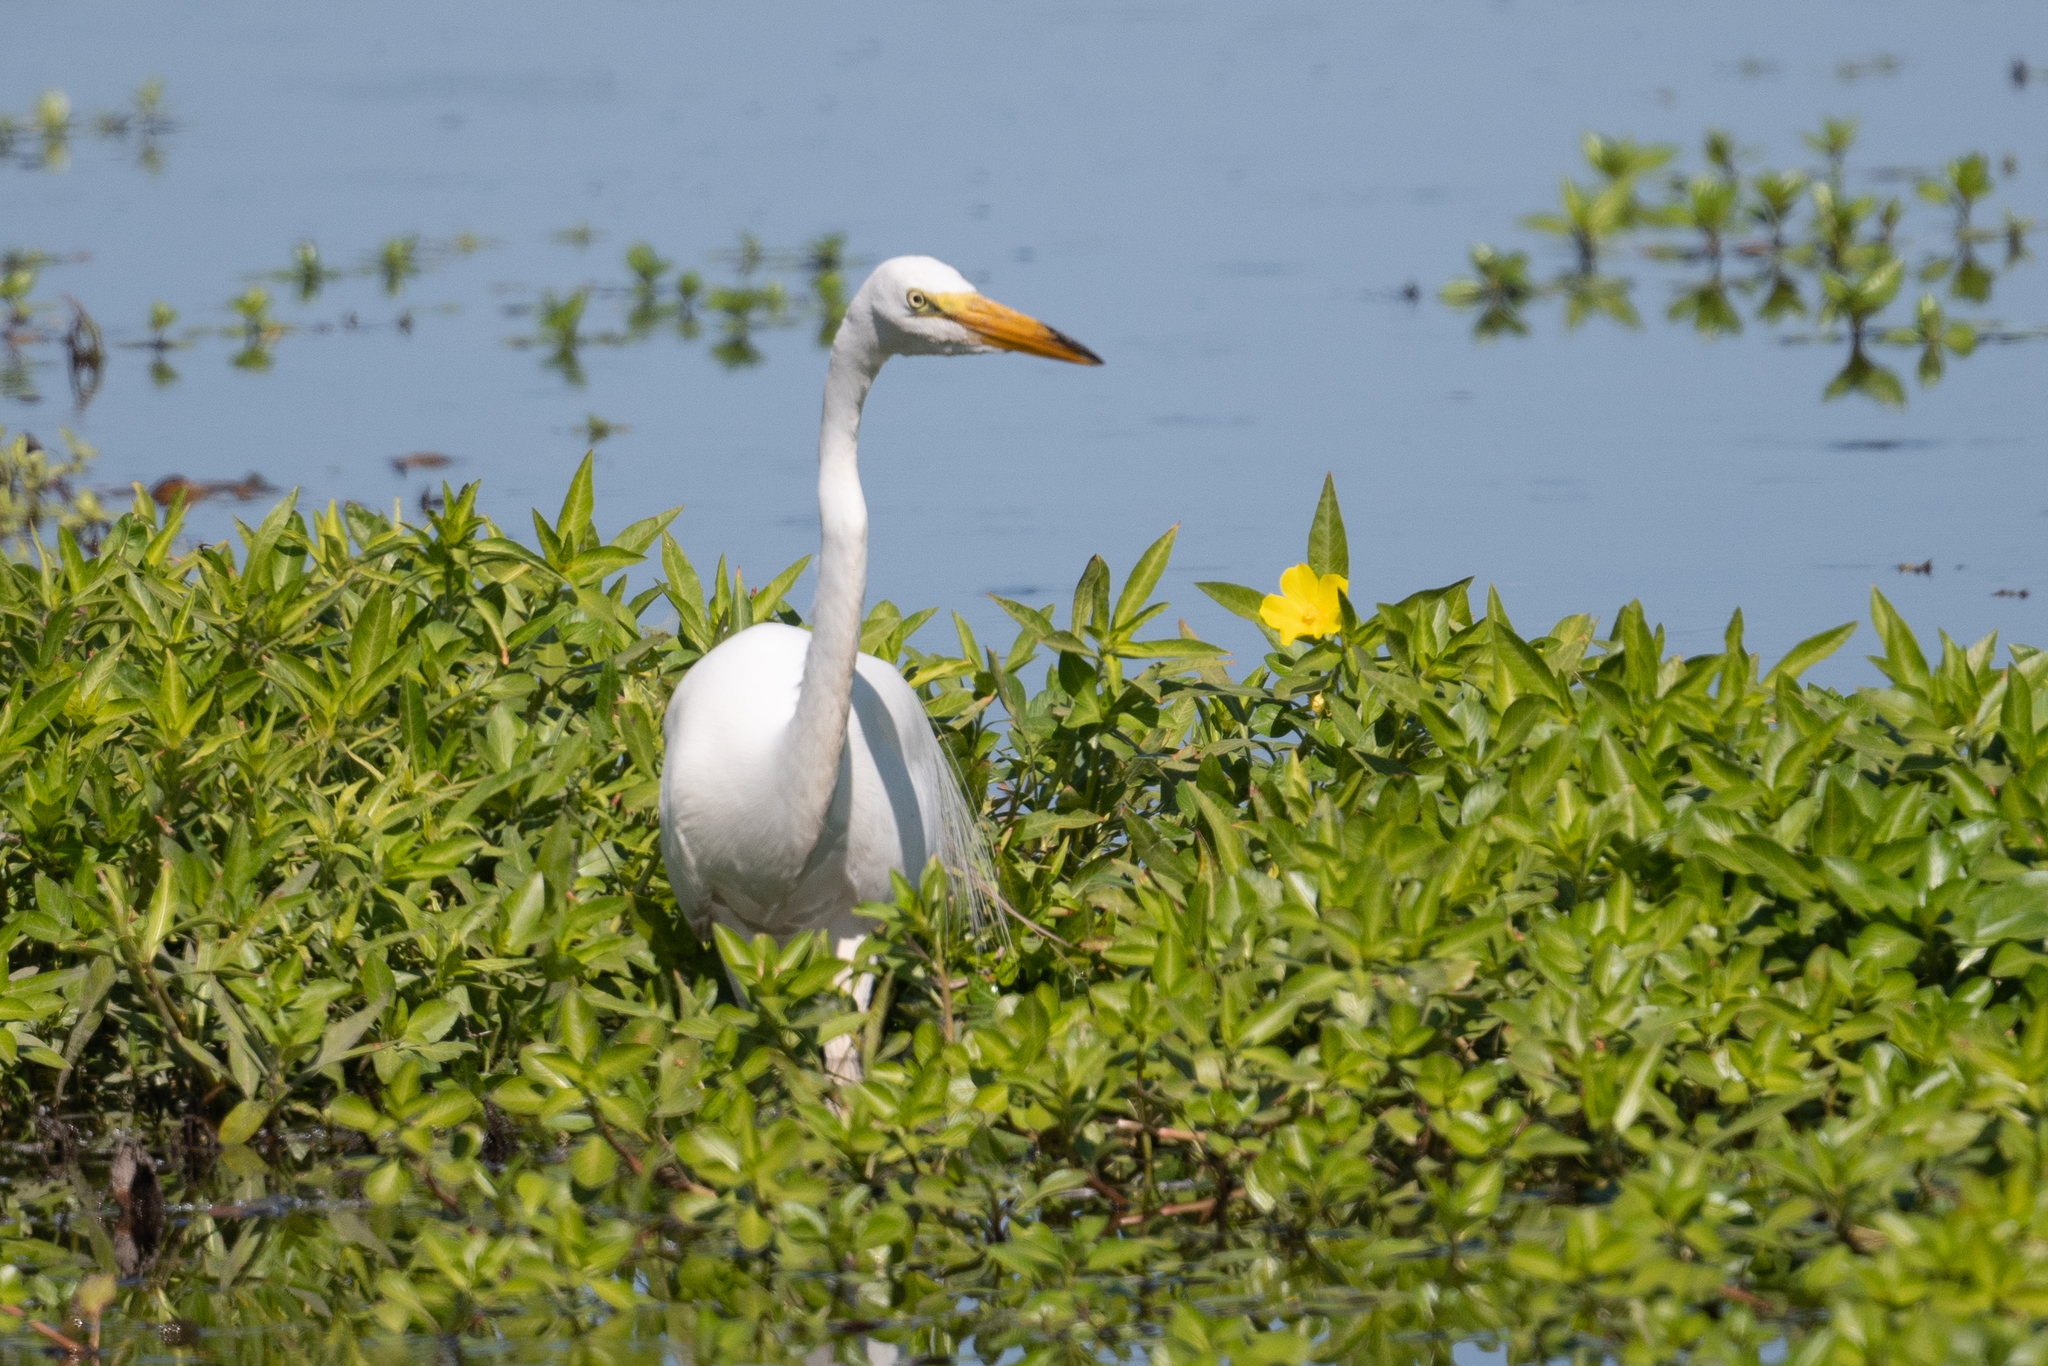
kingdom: Animalia
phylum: Chordata
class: Aves
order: Pelecaniformes
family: Ardeidae
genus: Ardea
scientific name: Ardea alba
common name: Great egret
